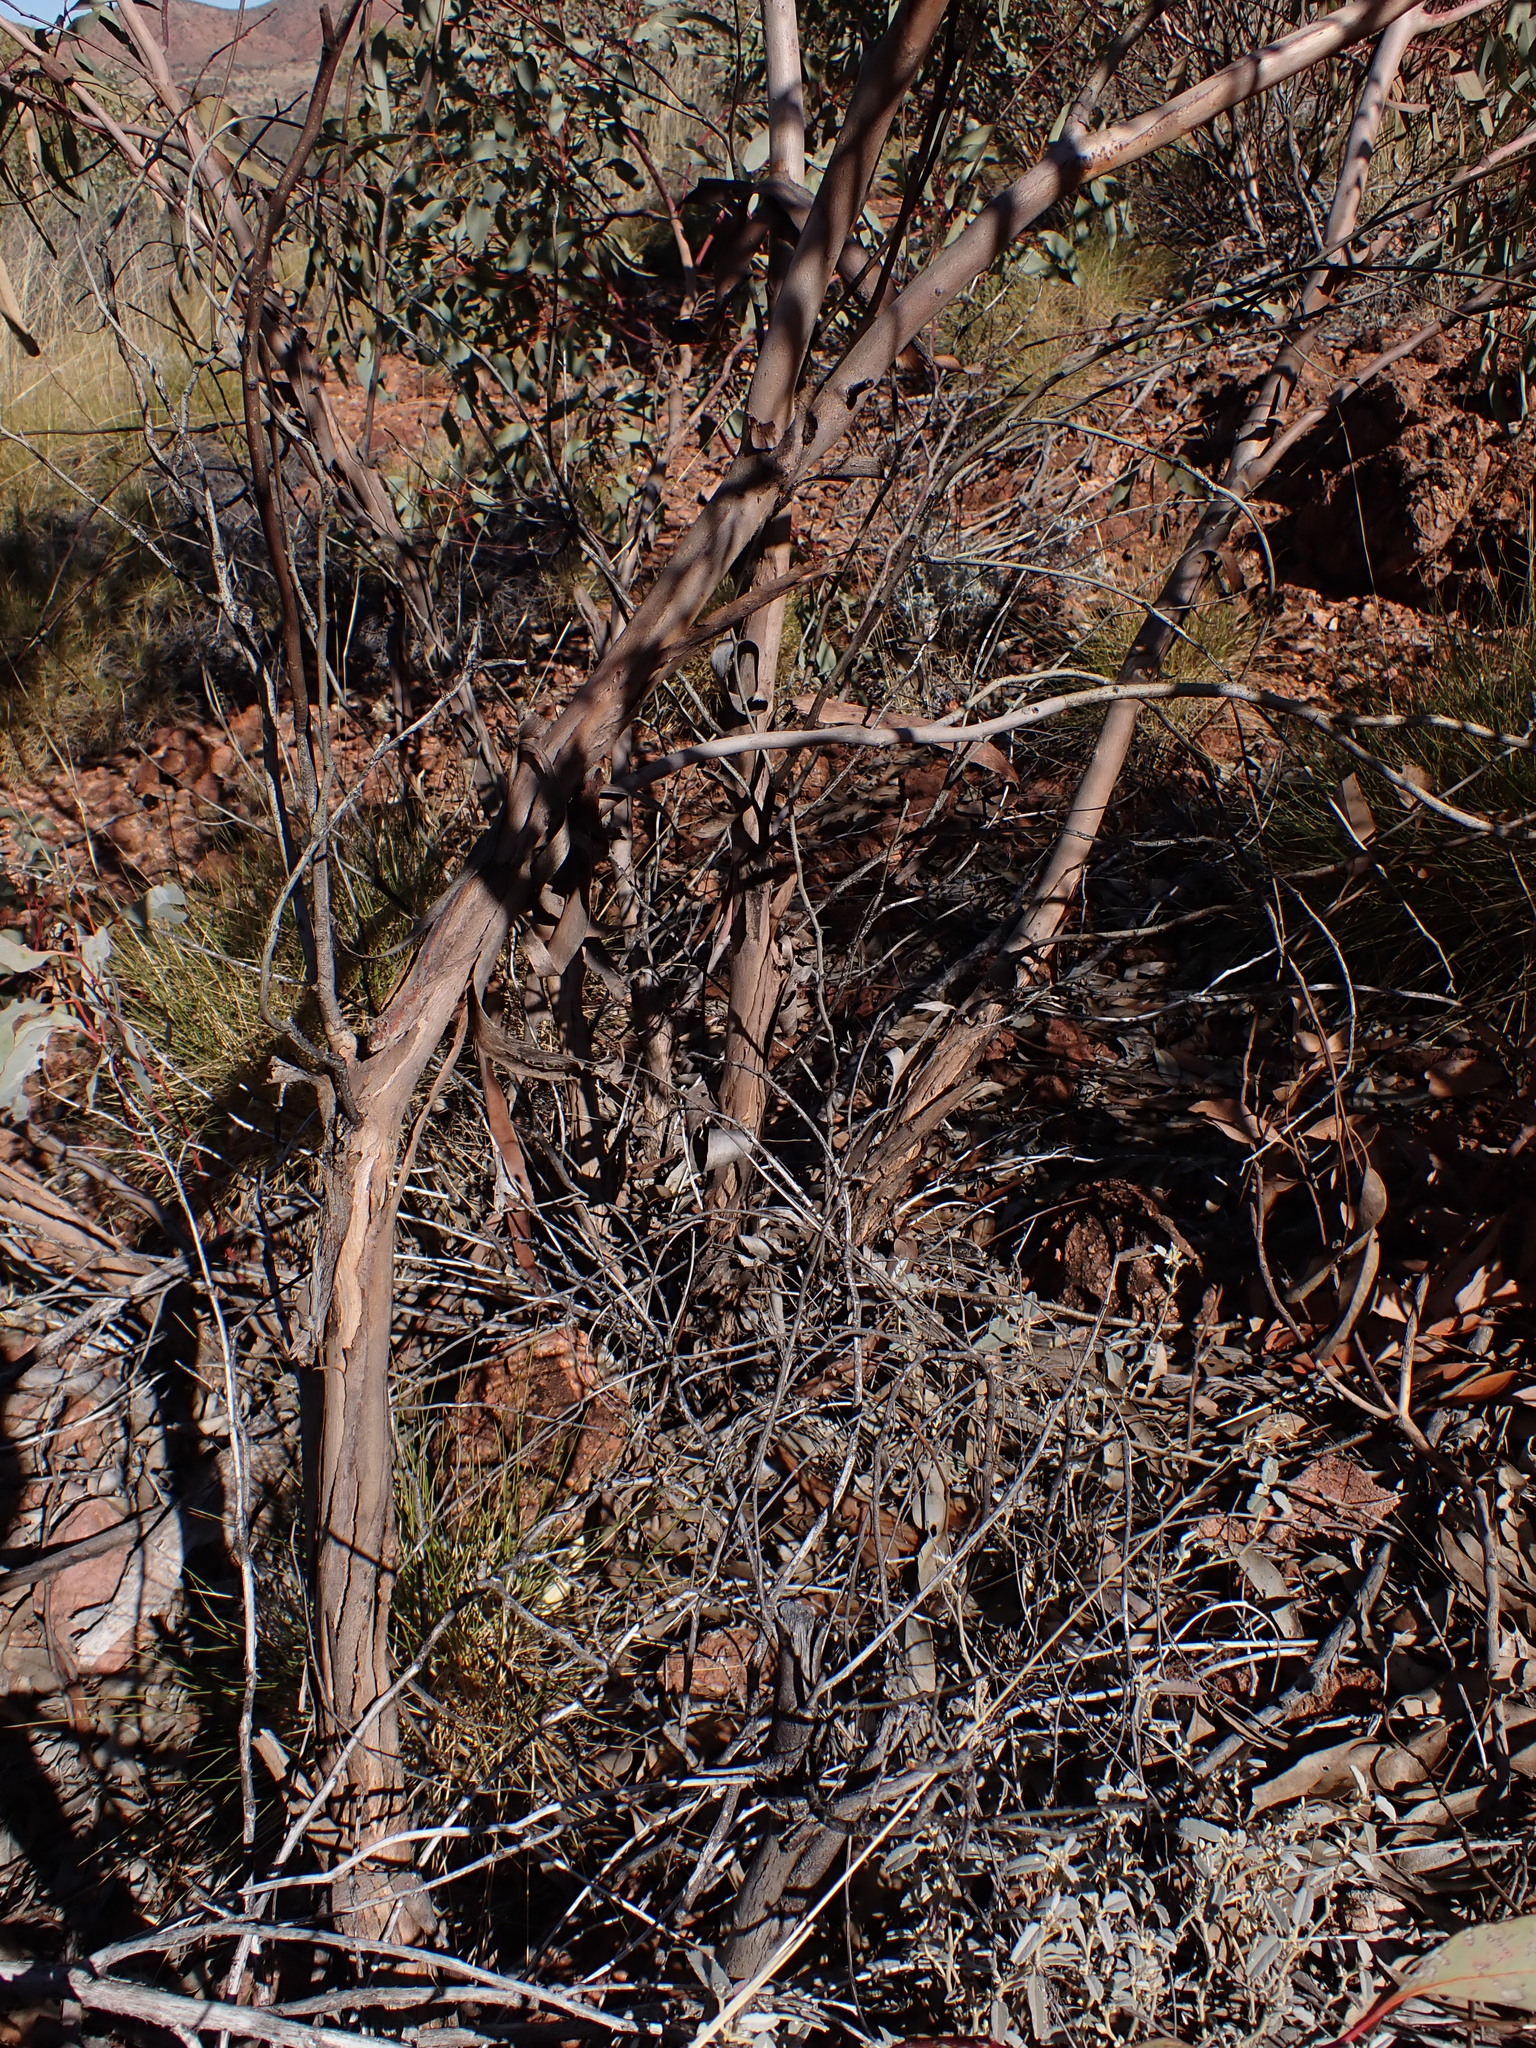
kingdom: Plantae
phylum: Tracheophyta
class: Magnoliopsida
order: Myrtales
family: Myrtaceae
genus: Eucalyptus
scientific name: Eucalyptus socialis
